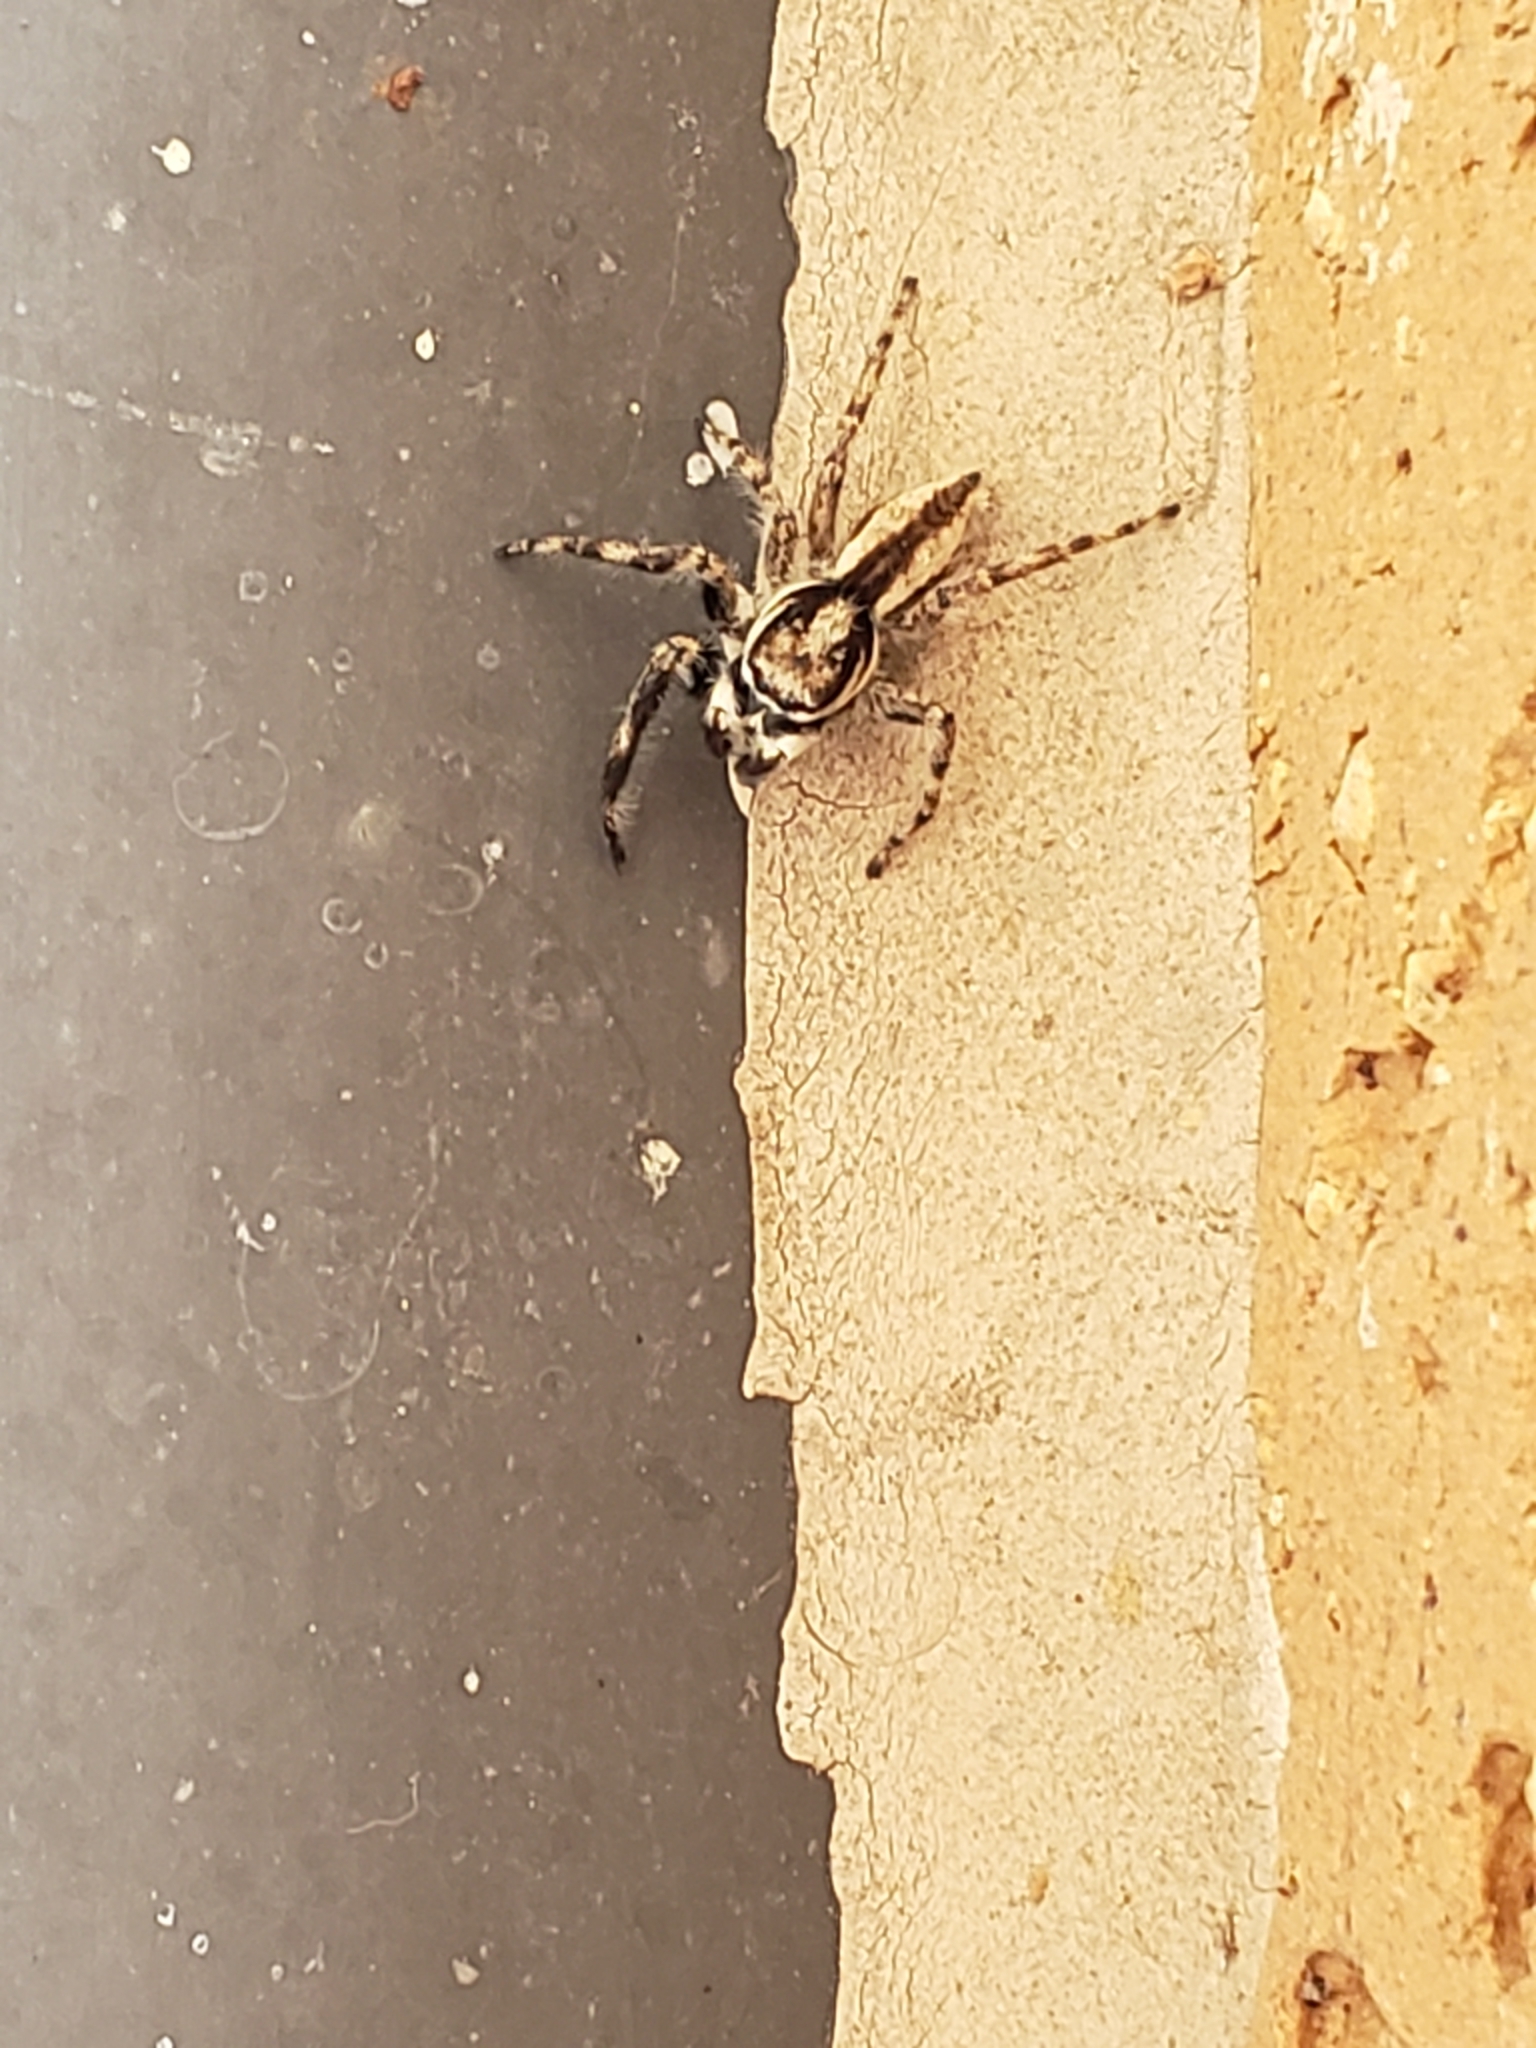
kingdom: Animalia
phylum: Arthropoda
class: Arachnida
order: Araneae
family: Salticidae
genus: Menemerus
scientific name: Menemerus bivittatus
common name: Gray wall jumper
